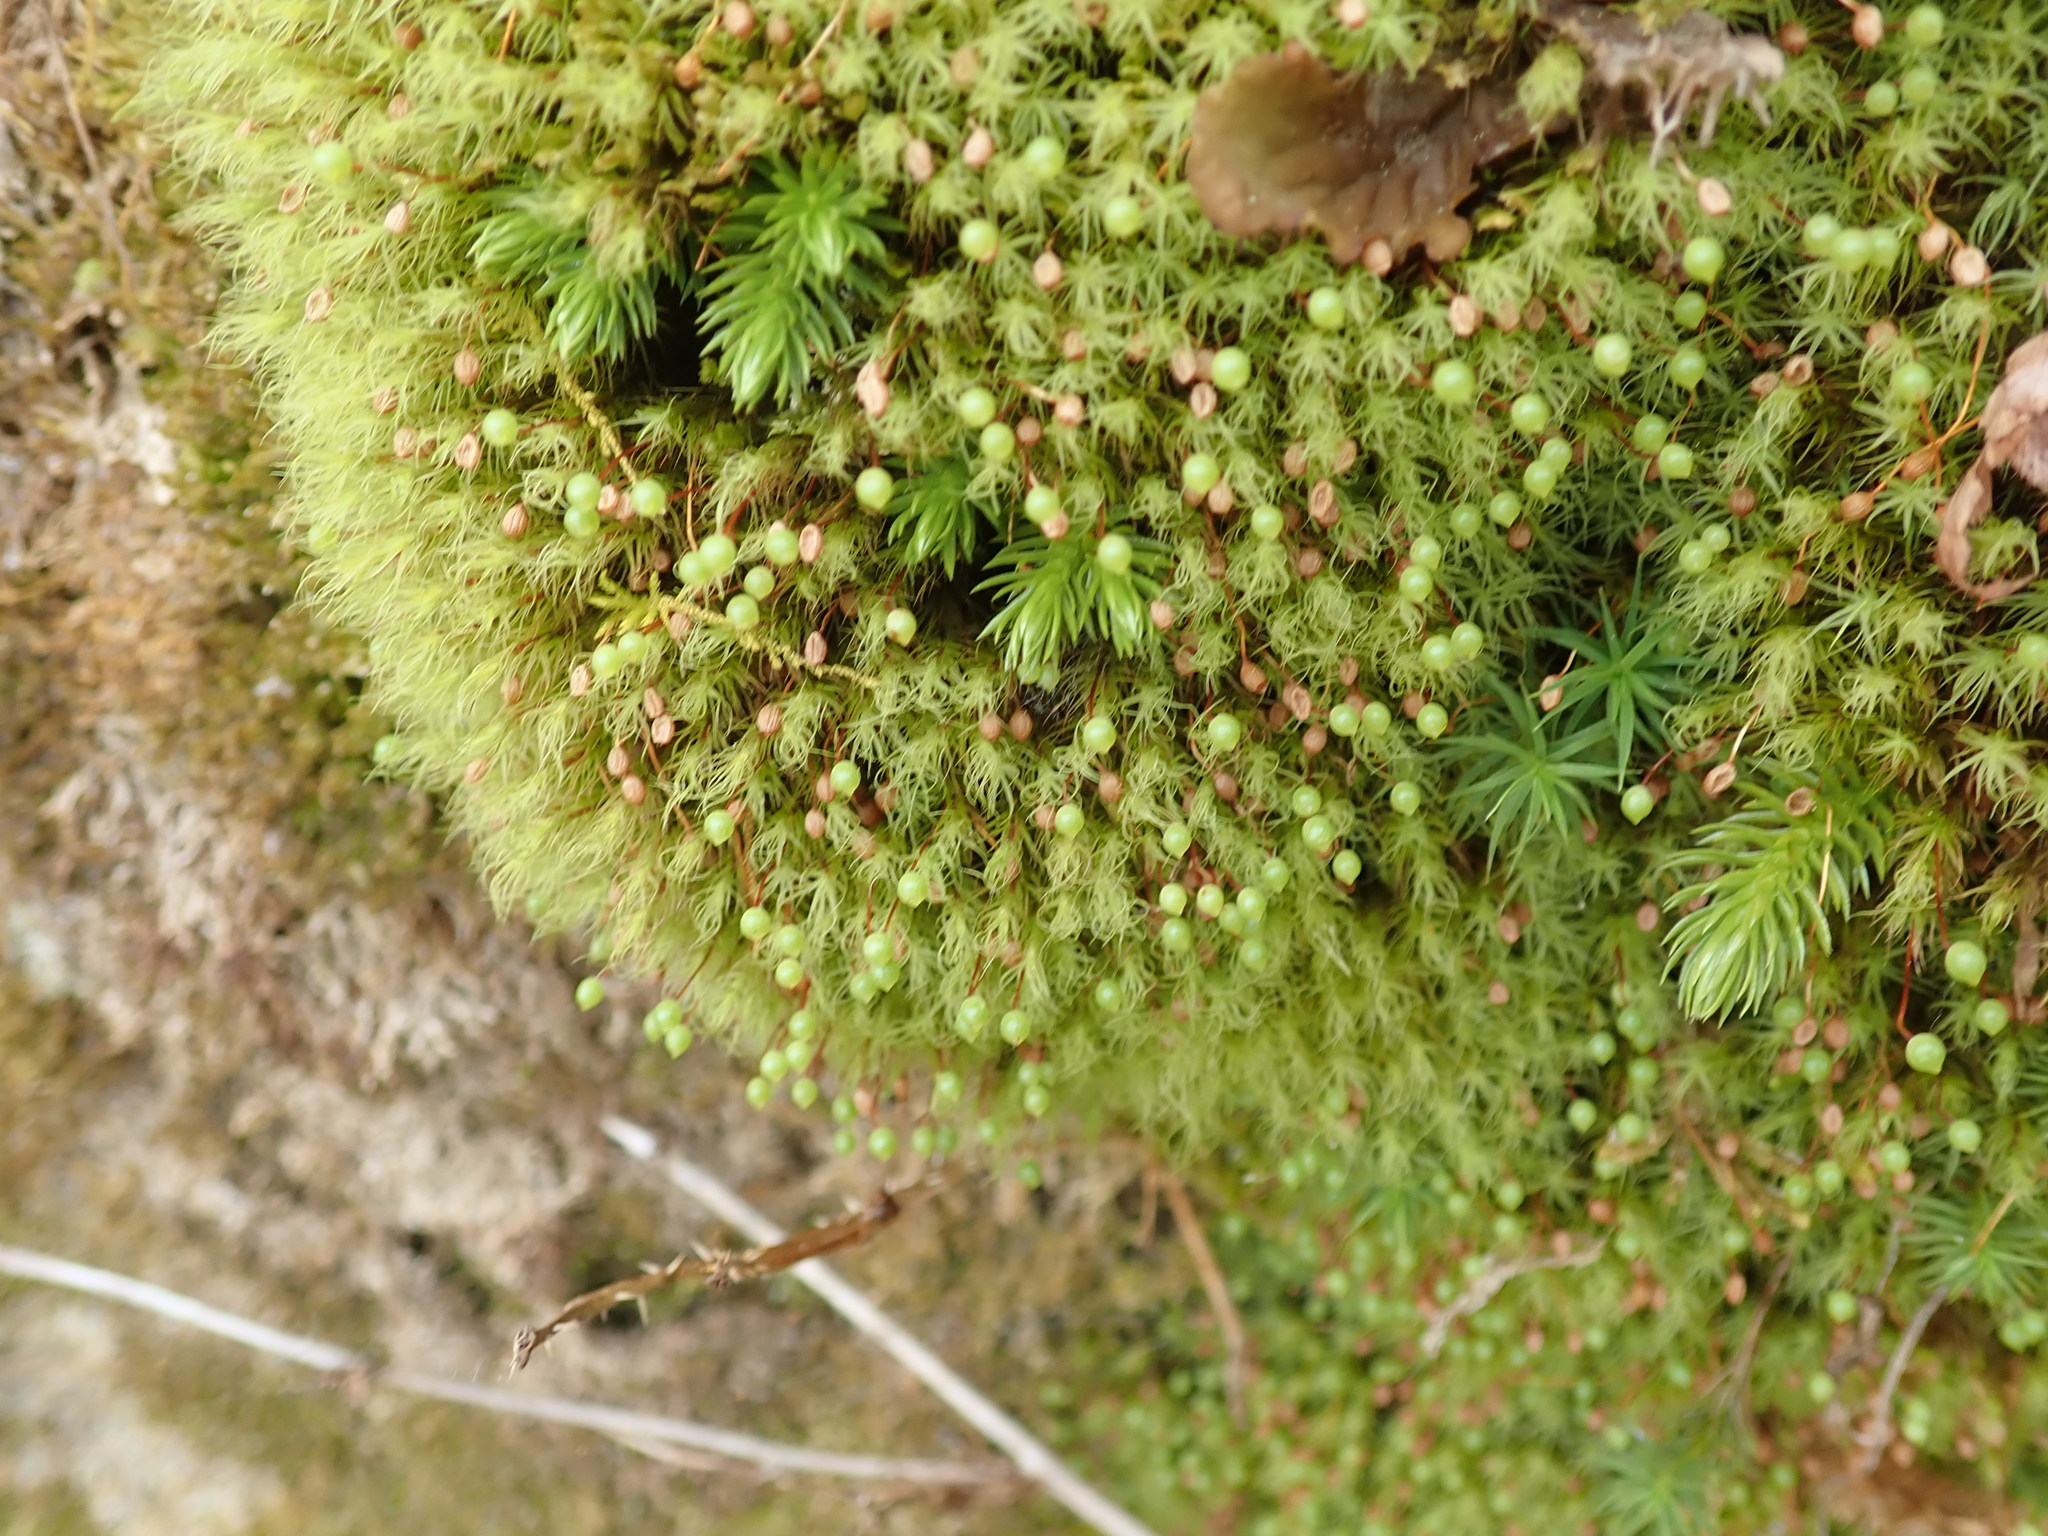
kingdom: Plantae
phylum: Bryophyta
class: Bryopsida
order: Bartramiales
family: Bartramiaceae
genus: Bartramia
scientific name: Bartramia ithyphylla
